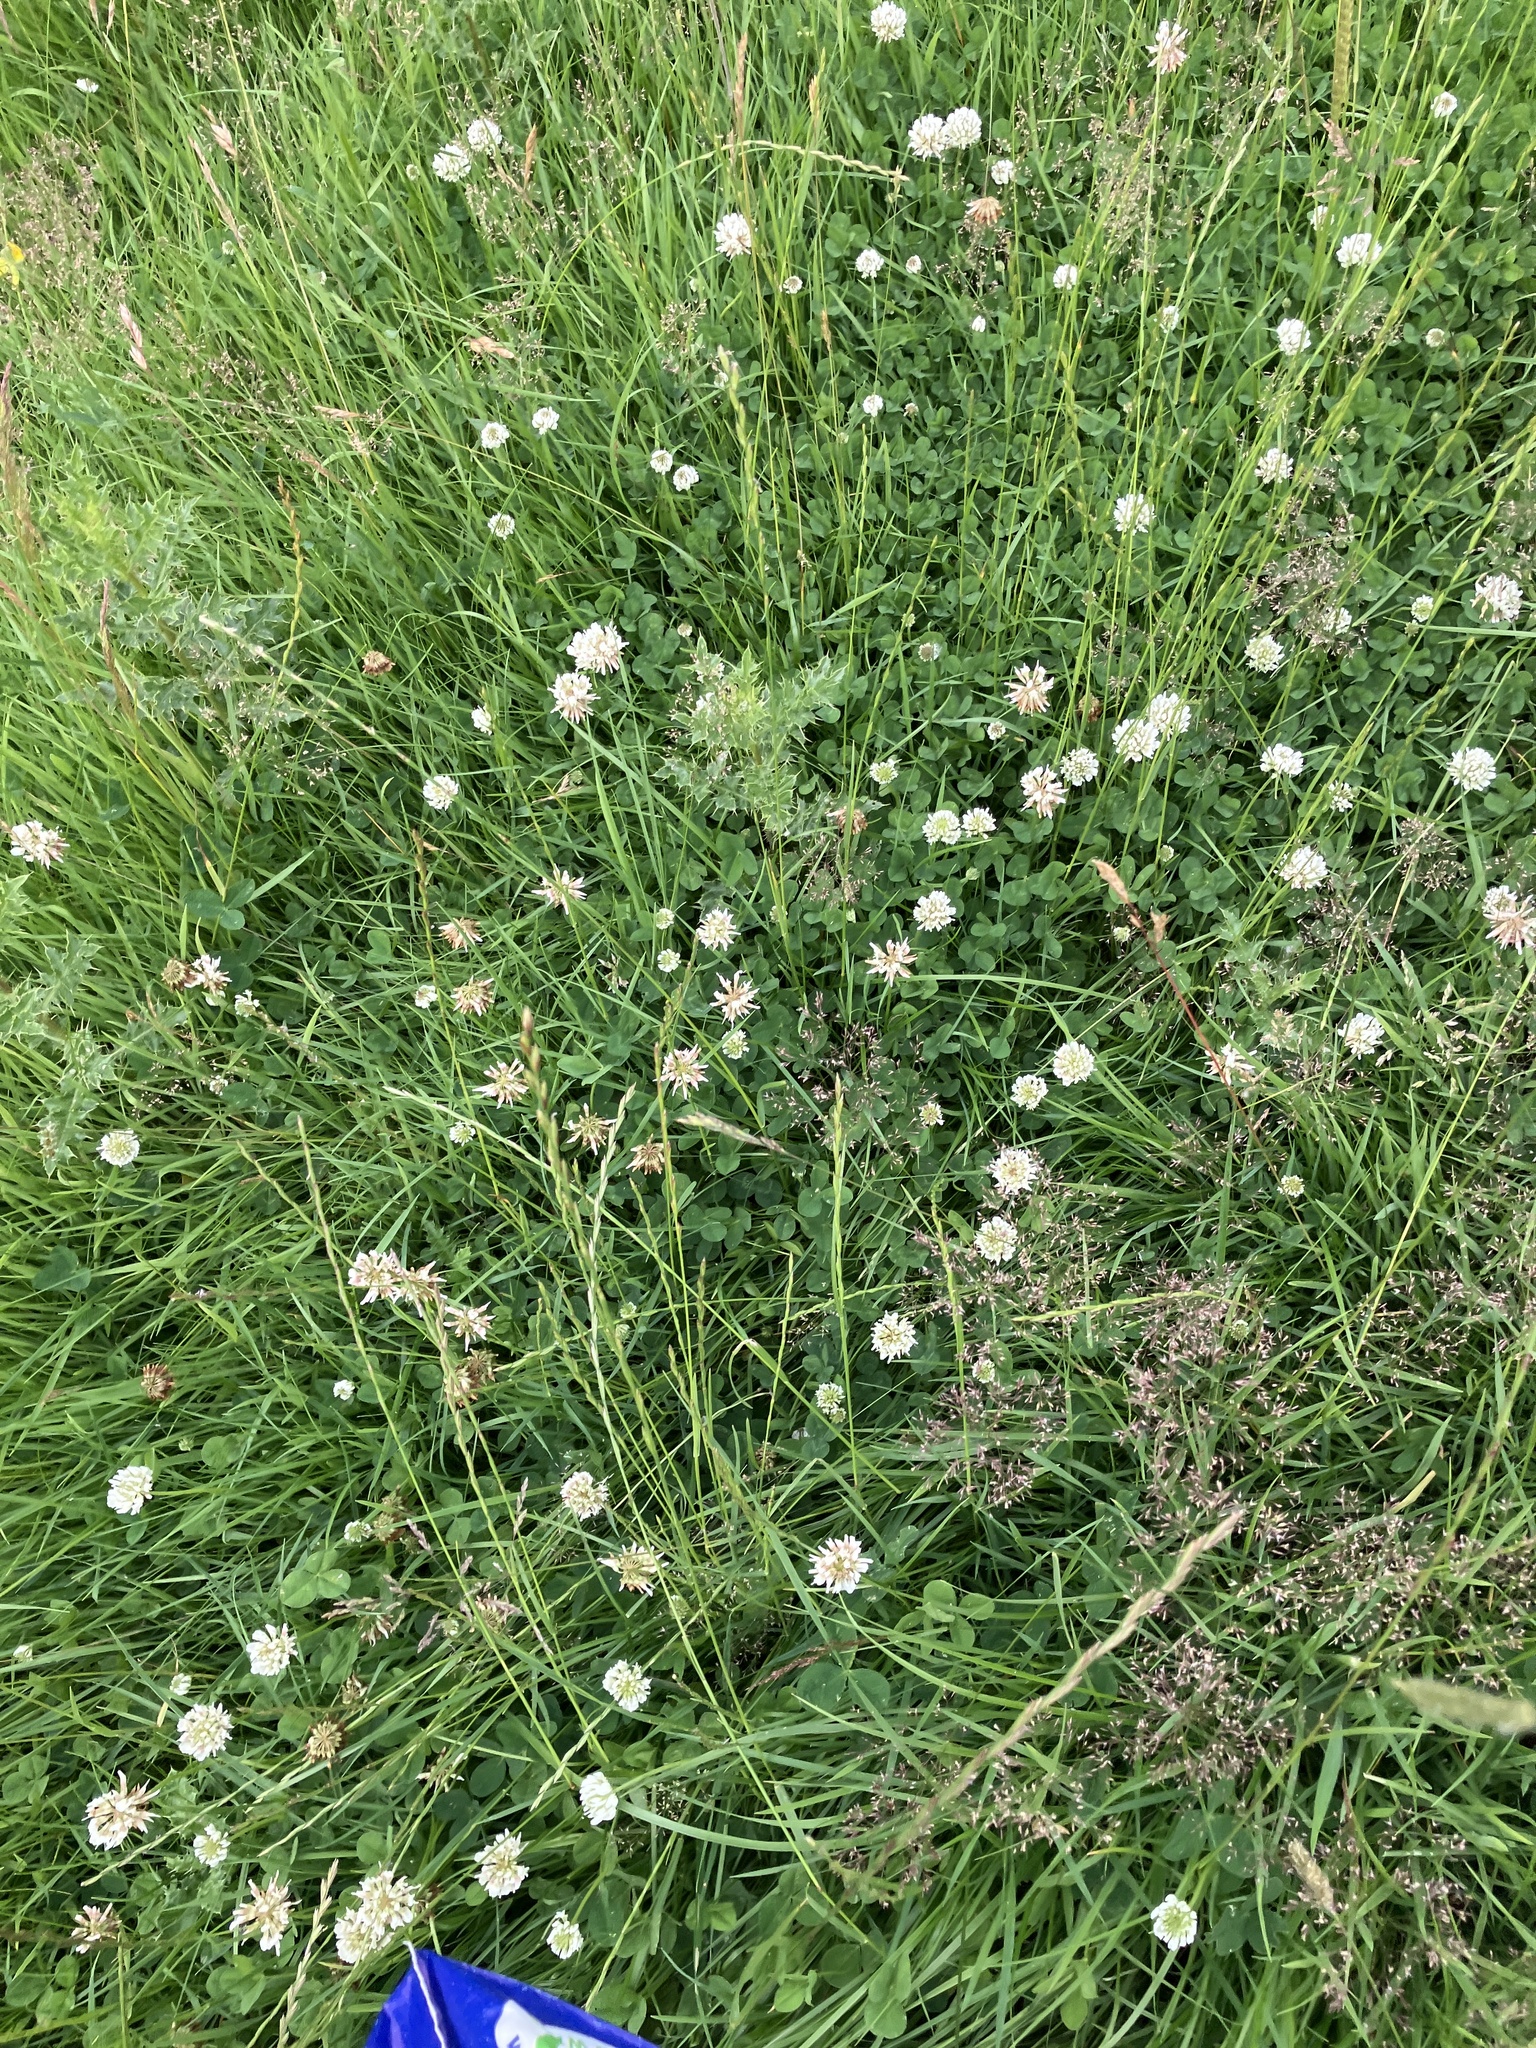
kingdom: Plantae
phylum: Tracheophyta
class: Magnoliopsida
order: Fabales
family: Fabaceae
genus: Trifolium
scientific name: Trifolium repens
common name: White clover
